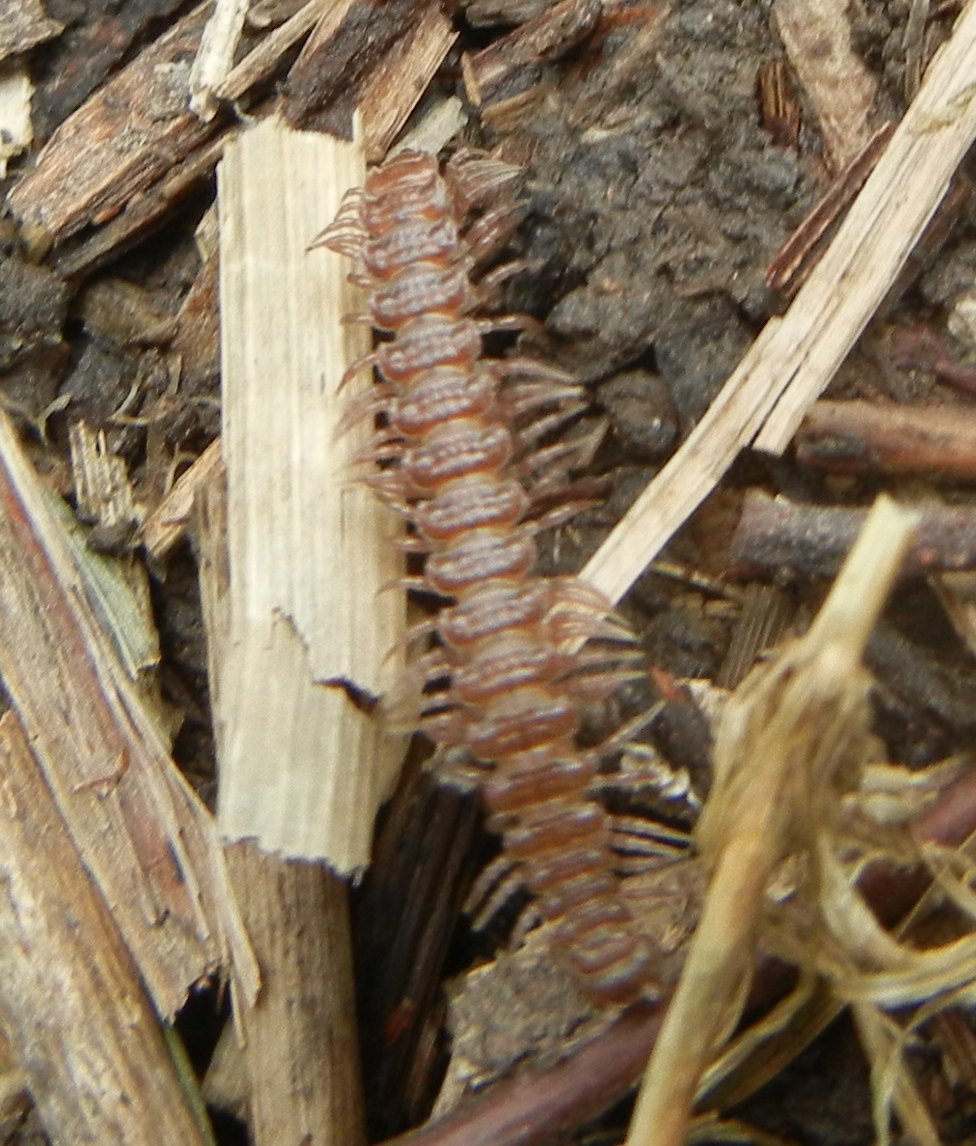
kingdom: Animalia
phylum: Arthropoda
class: Diplopoda
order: Polydesmida
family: Polydesmidae
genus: Polydesmus
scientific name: Polydesmus
